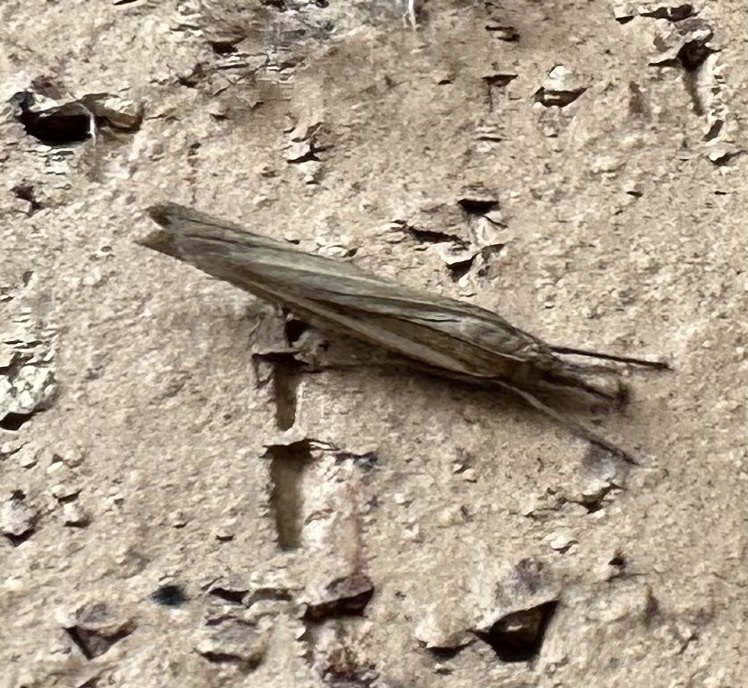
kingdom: Animalia
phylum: Arthropoda
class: Insecta
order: Lepidoptera
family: Crambidae
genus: Agriphila
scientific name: Agriphila tristellus
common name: Common grass-veneer
